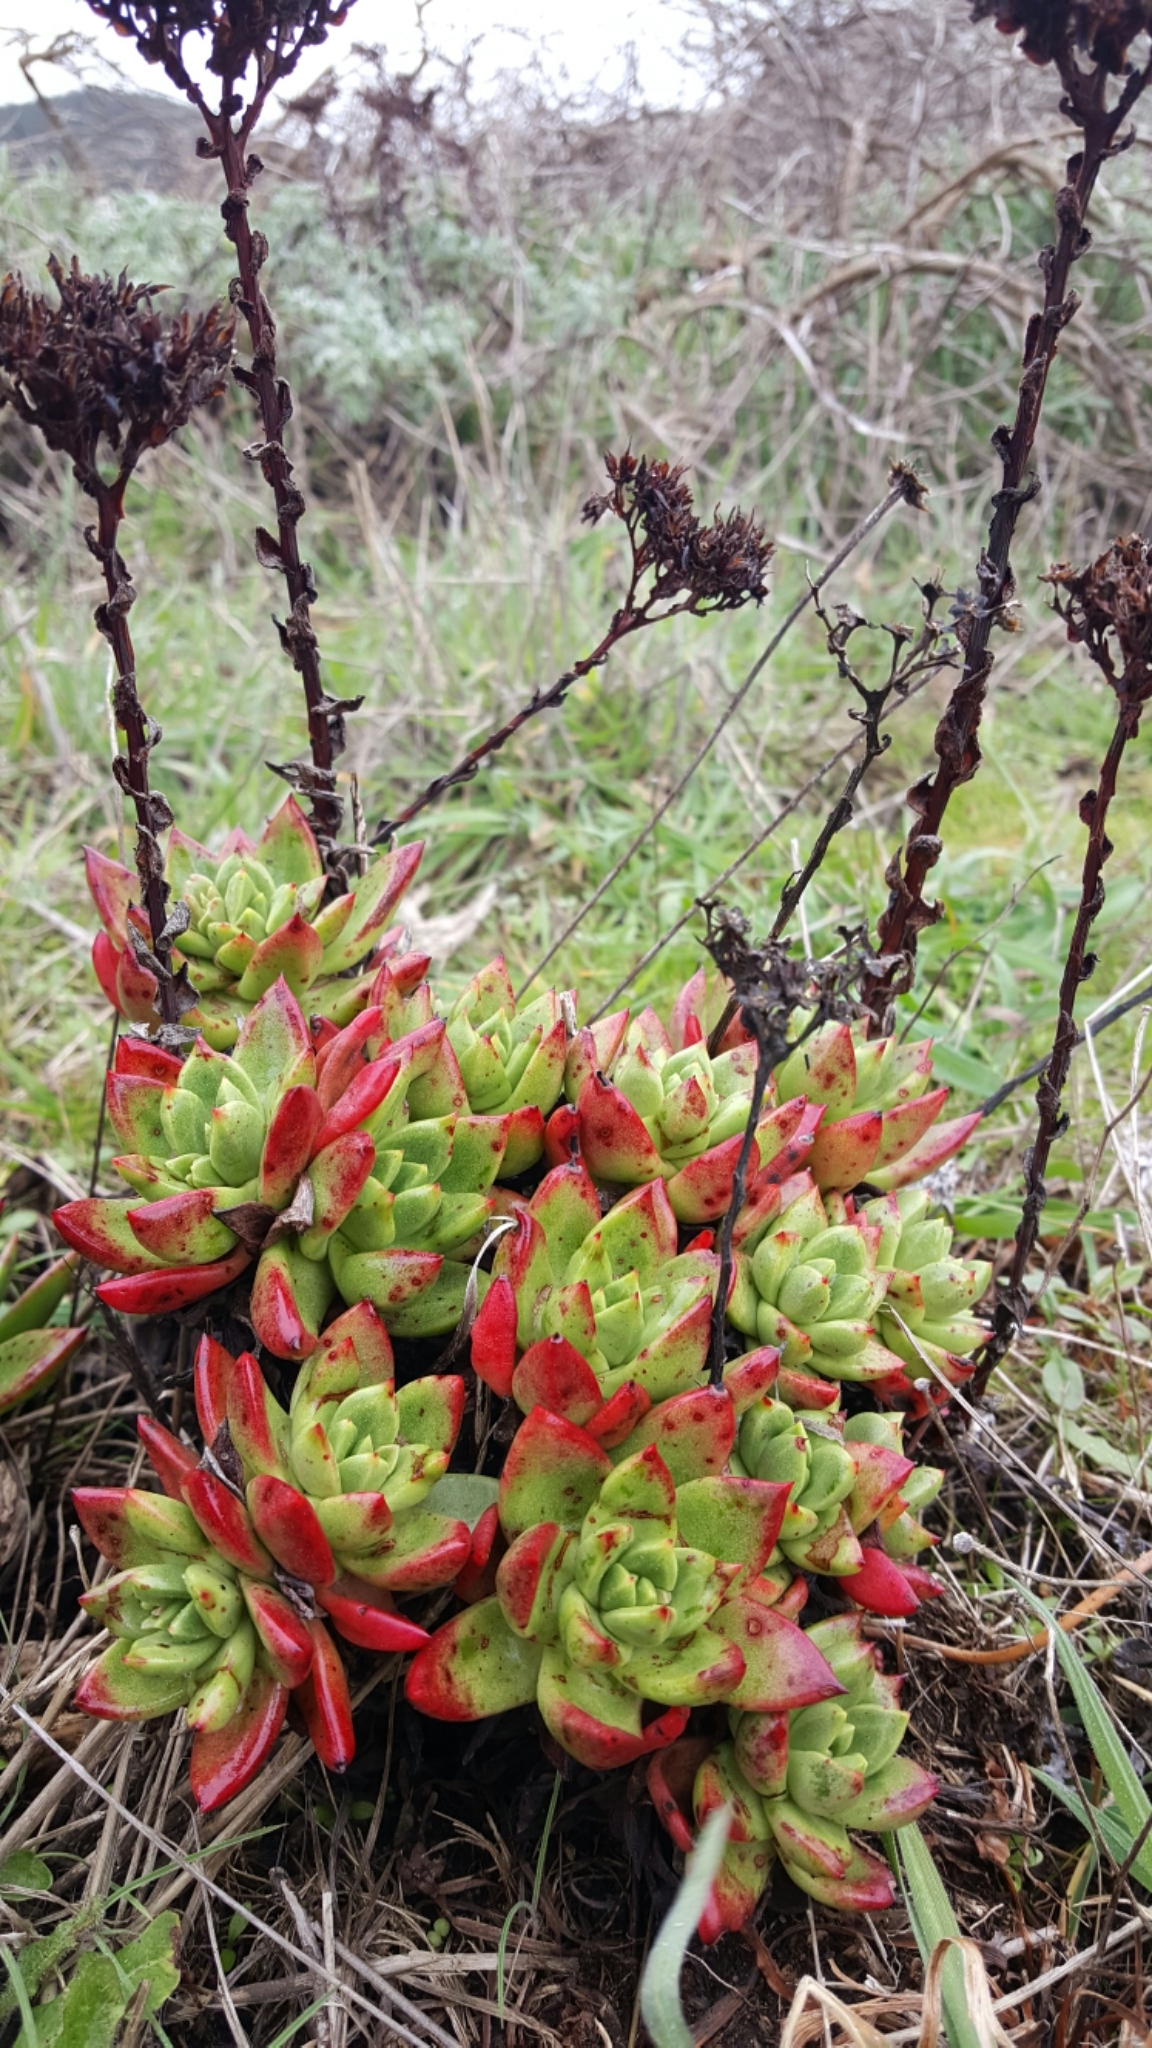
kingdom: Plantae
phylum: Tracheophyta
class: Magnoliopsida
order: Saxifragales
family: Crassulaceae
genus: Dudleya
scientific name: Dudleya farinosa
